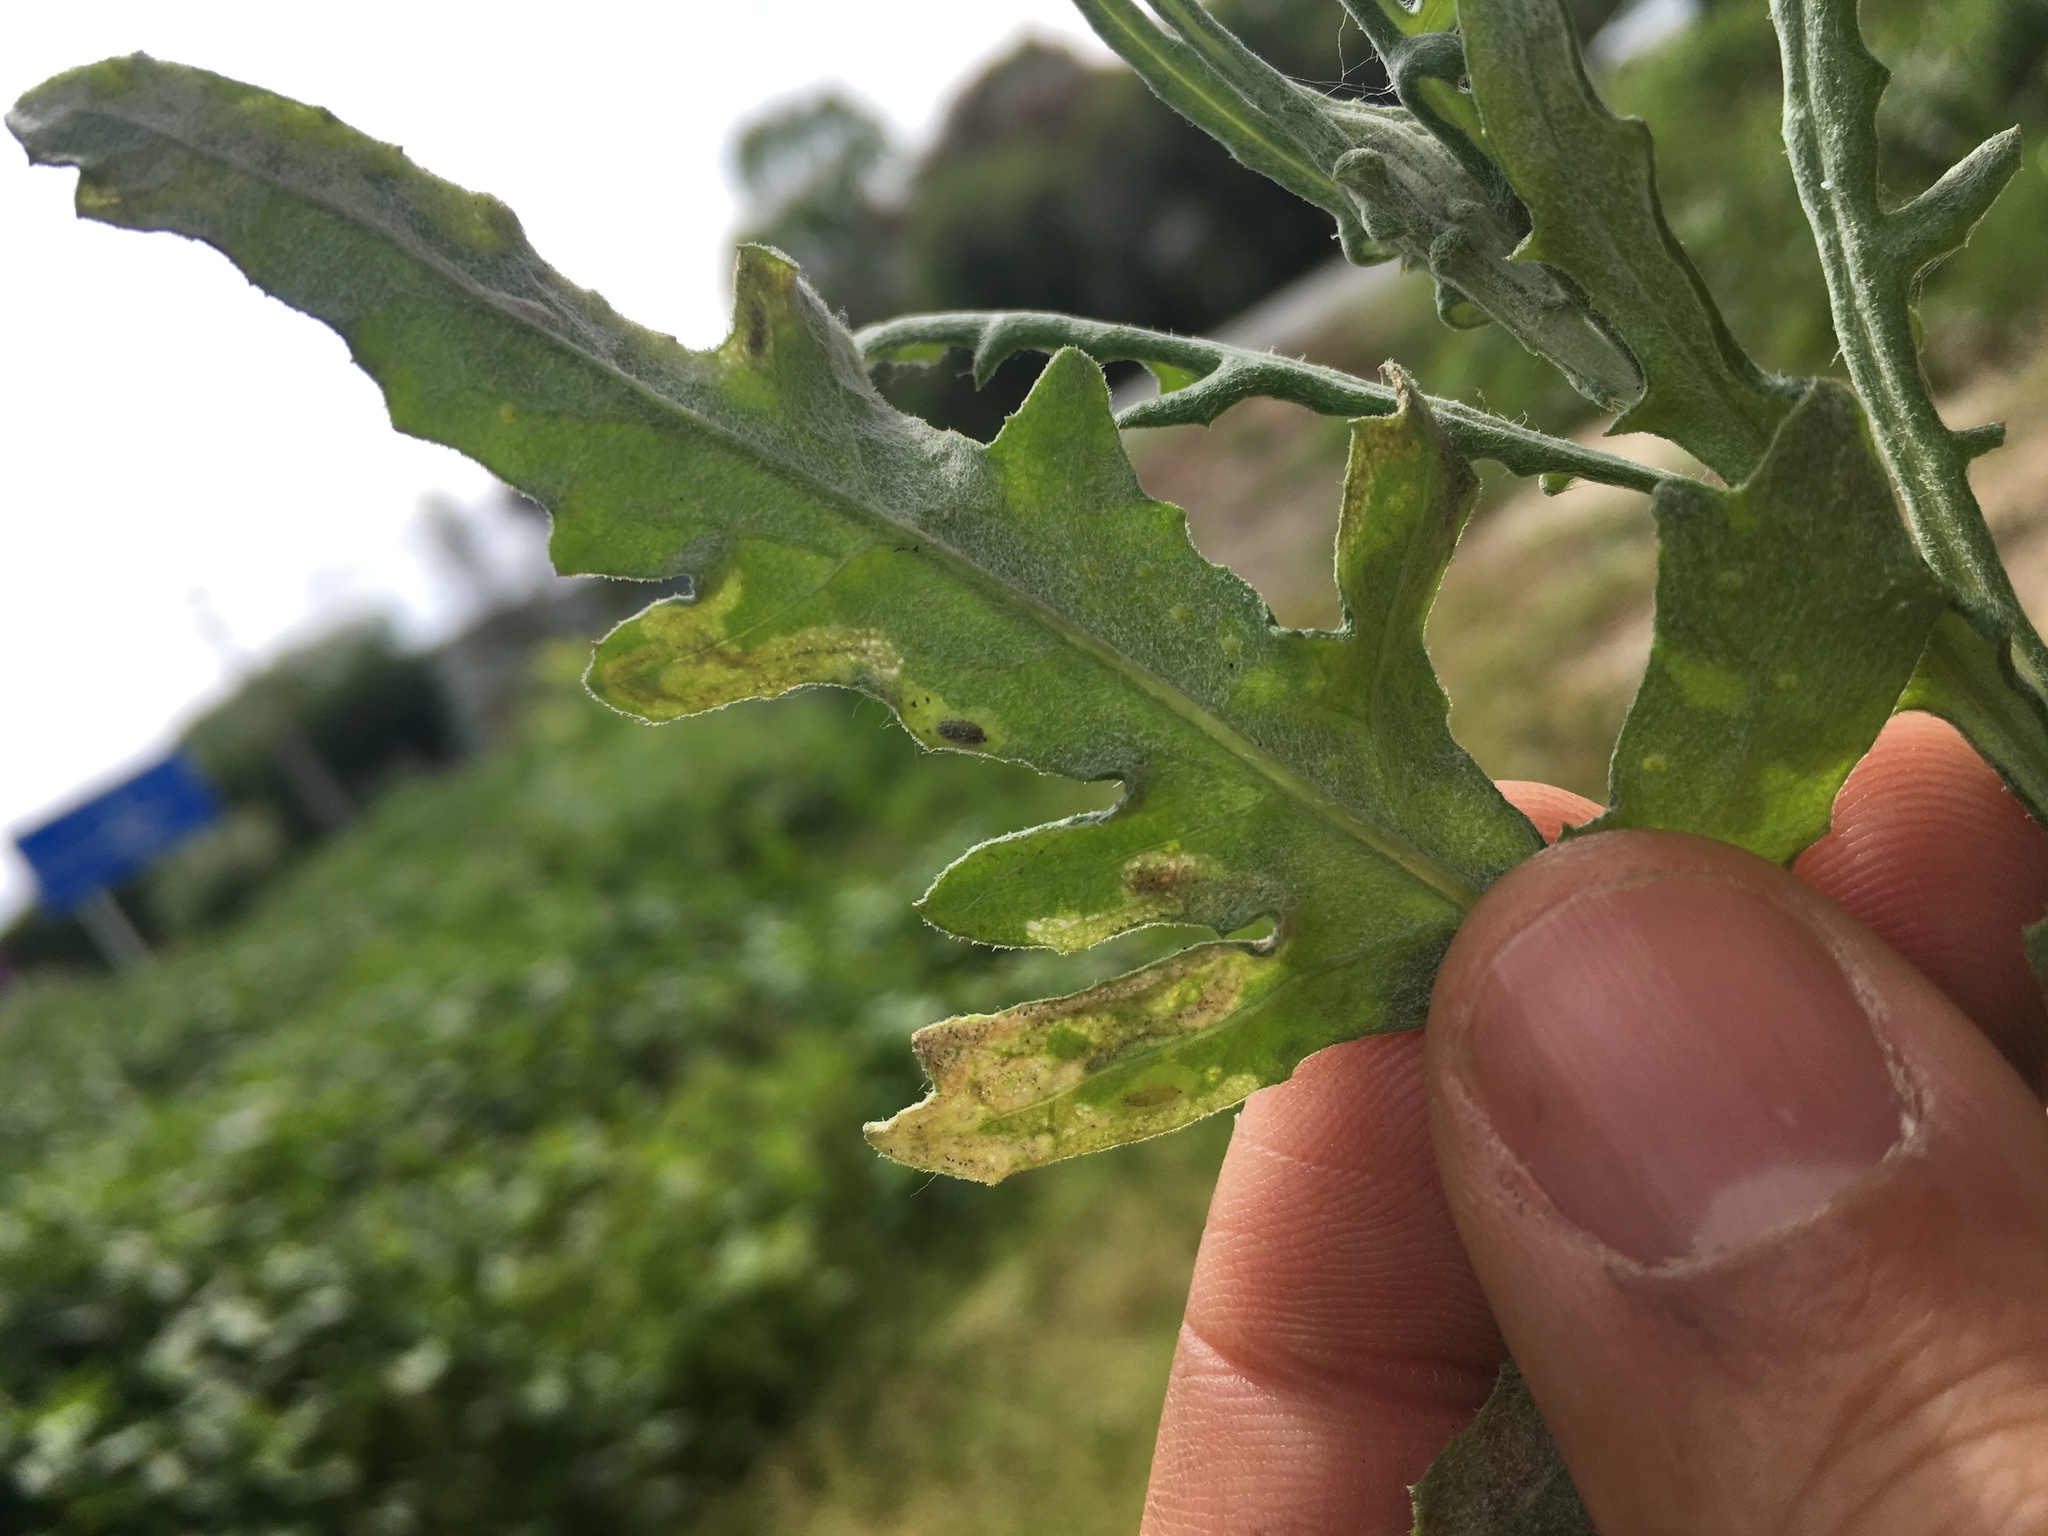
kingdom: Animalia
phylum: Arthropoda
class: Insecta
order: Diptera
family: Agromyzidae
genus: Phytomyza
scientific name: Phytomyza syngenesiae
